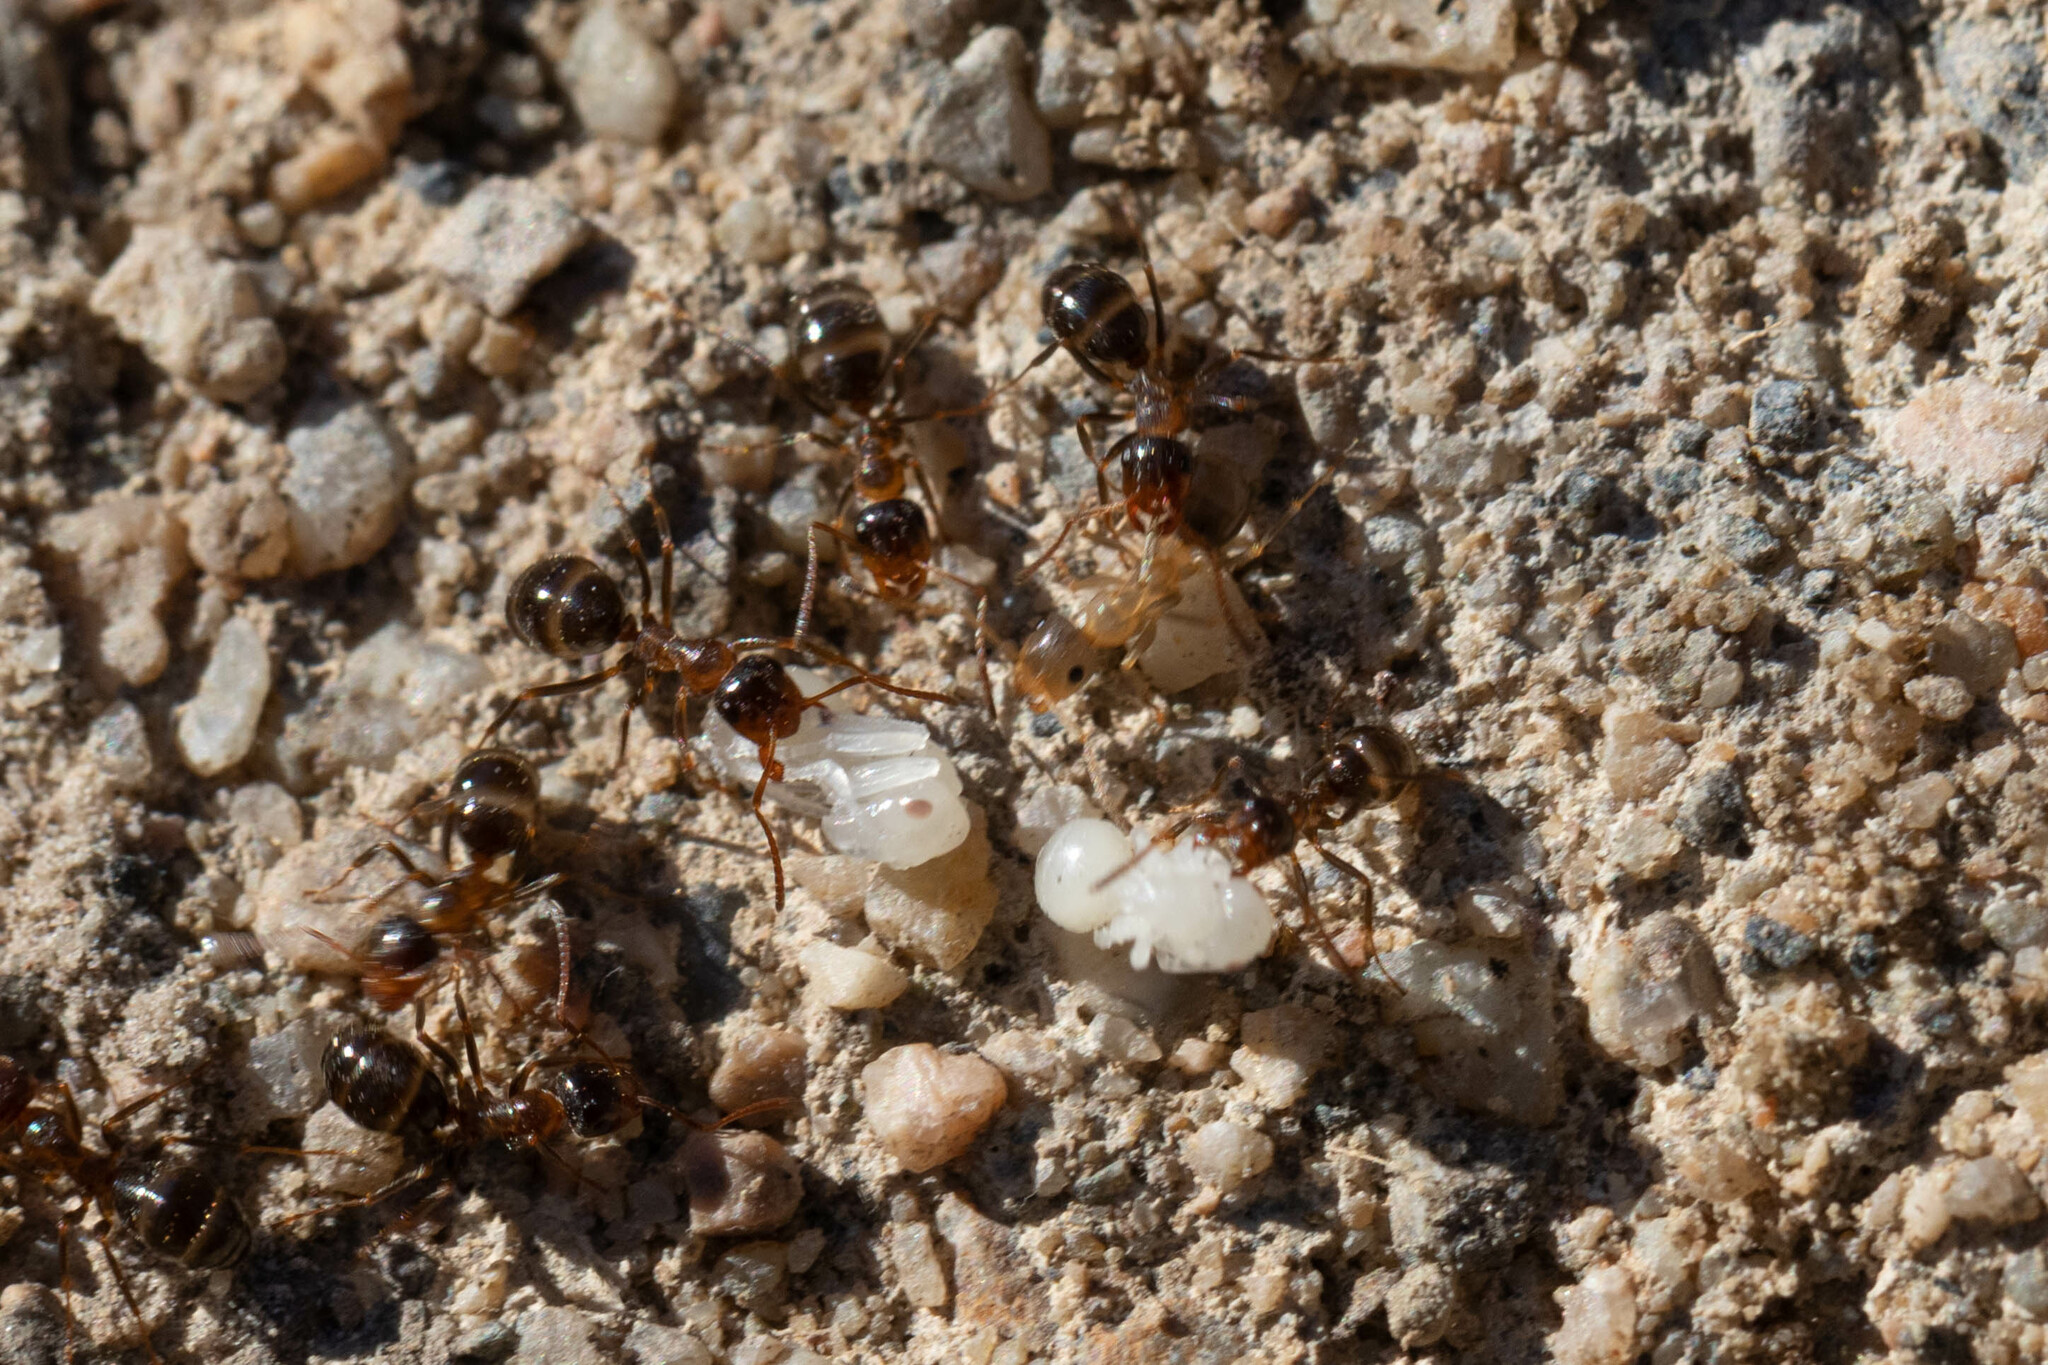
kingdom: Animalia
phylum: Arthropoda
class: Insecta
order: Hymenoptera
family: Formicidae
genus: Formica
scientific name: Formica subpolita
